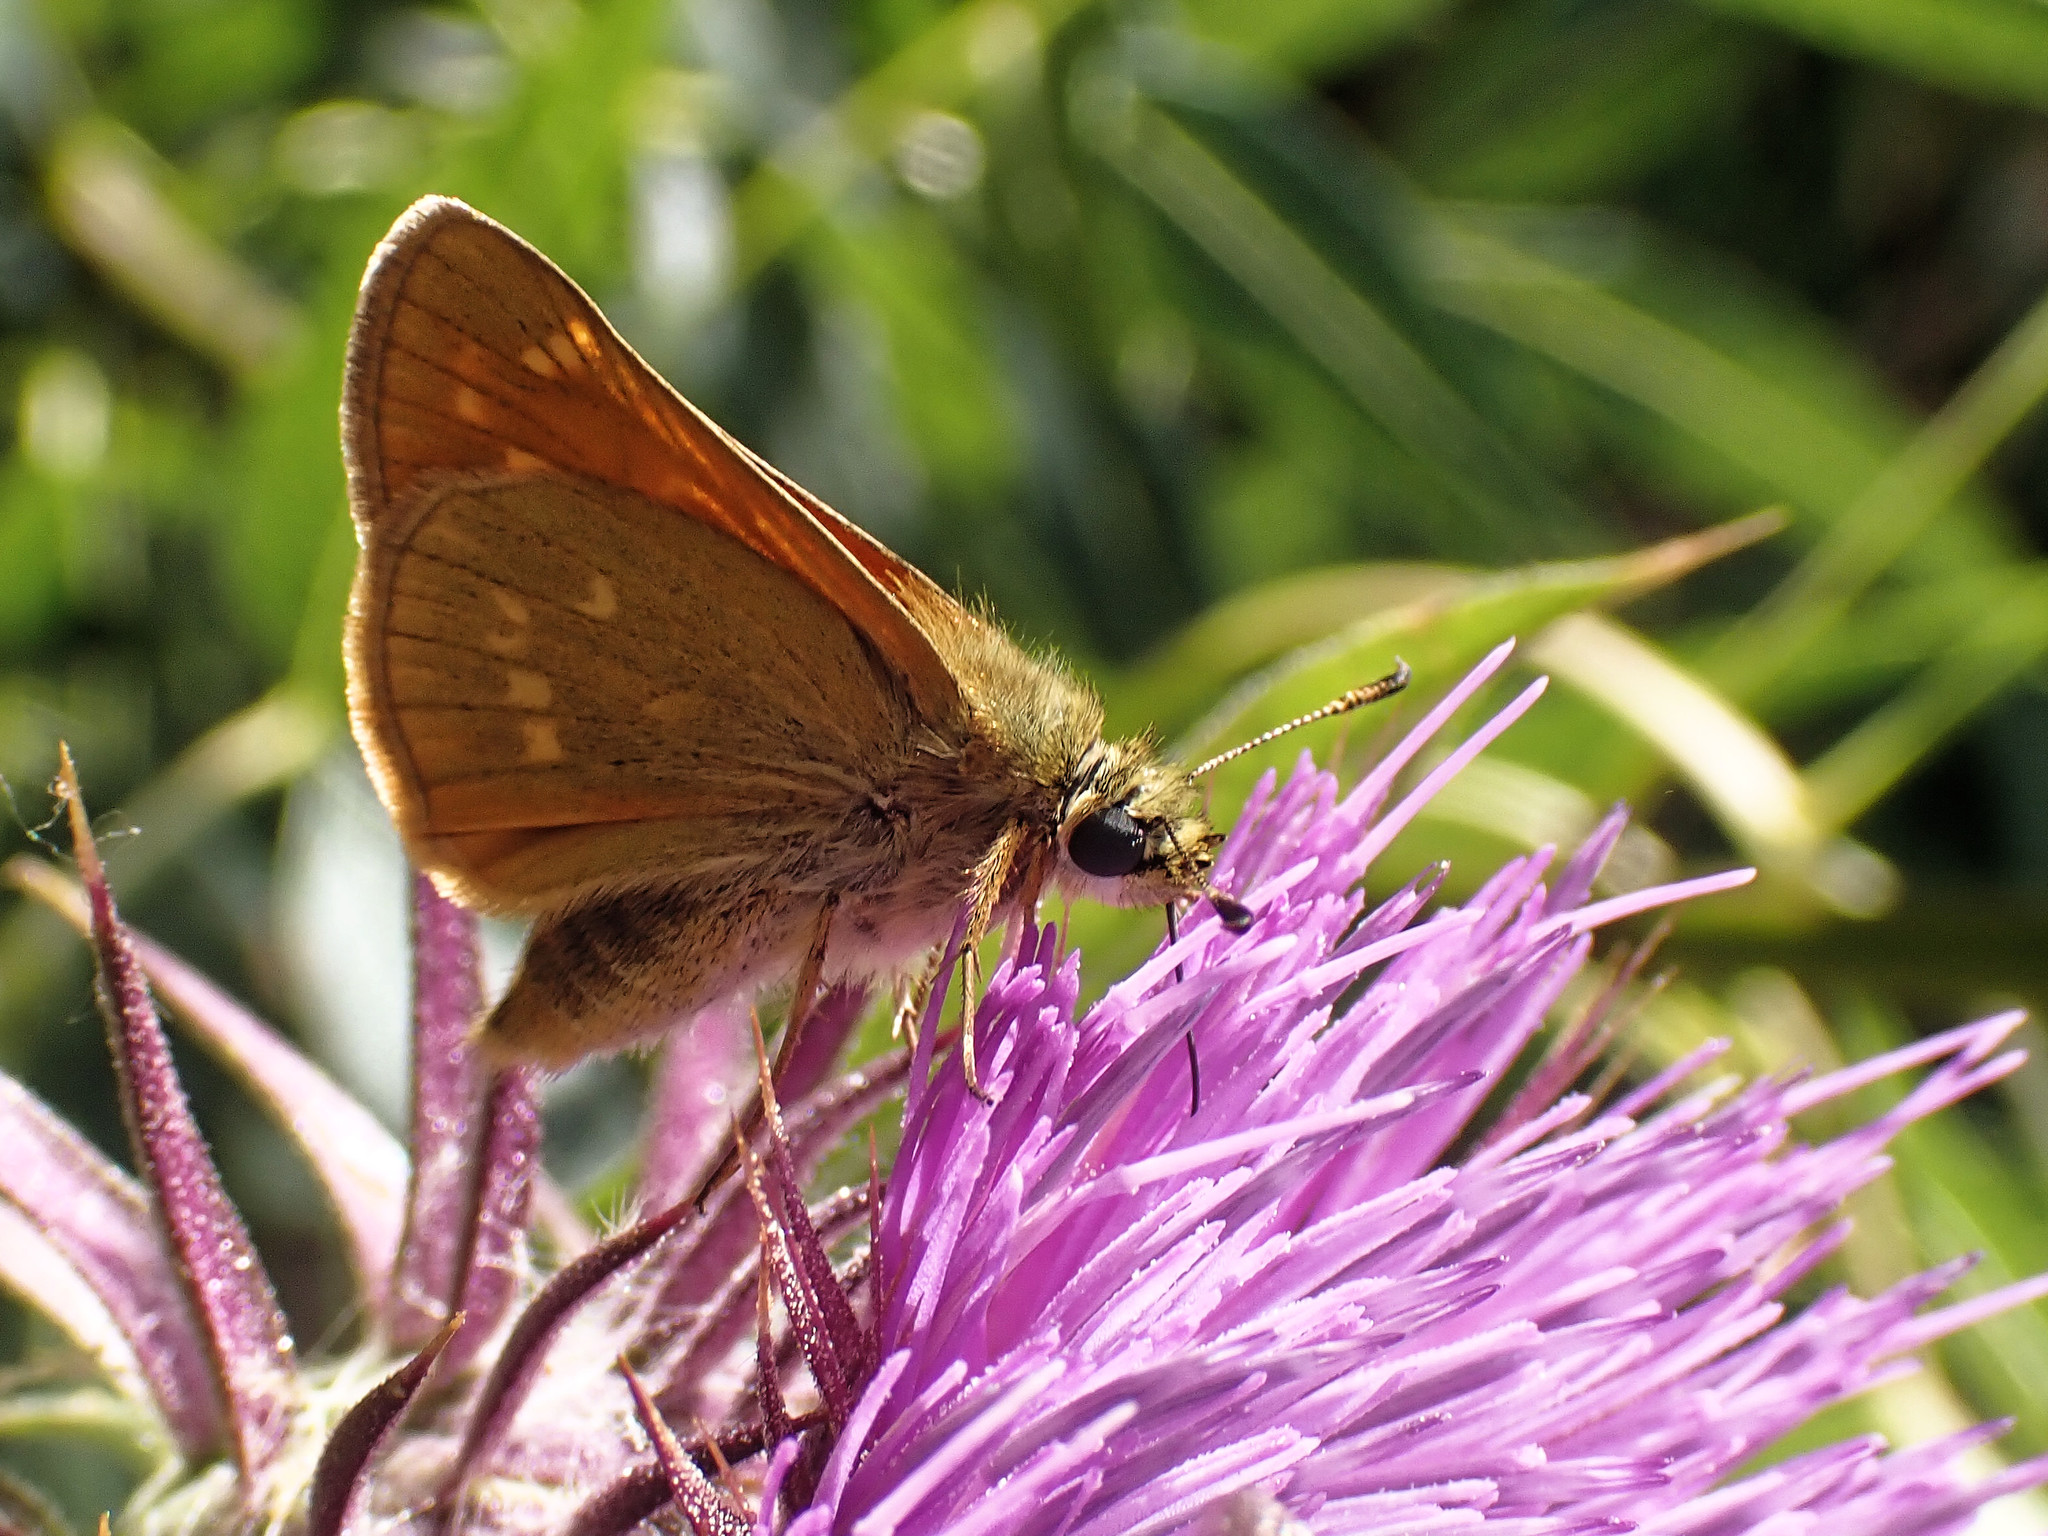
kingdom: Animalia
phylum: Arthropoda
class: Insecta
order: Lepidoptera
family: Hesperiidae
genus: Ochlodes
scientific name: Ochlodes venata
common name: Large skipper
